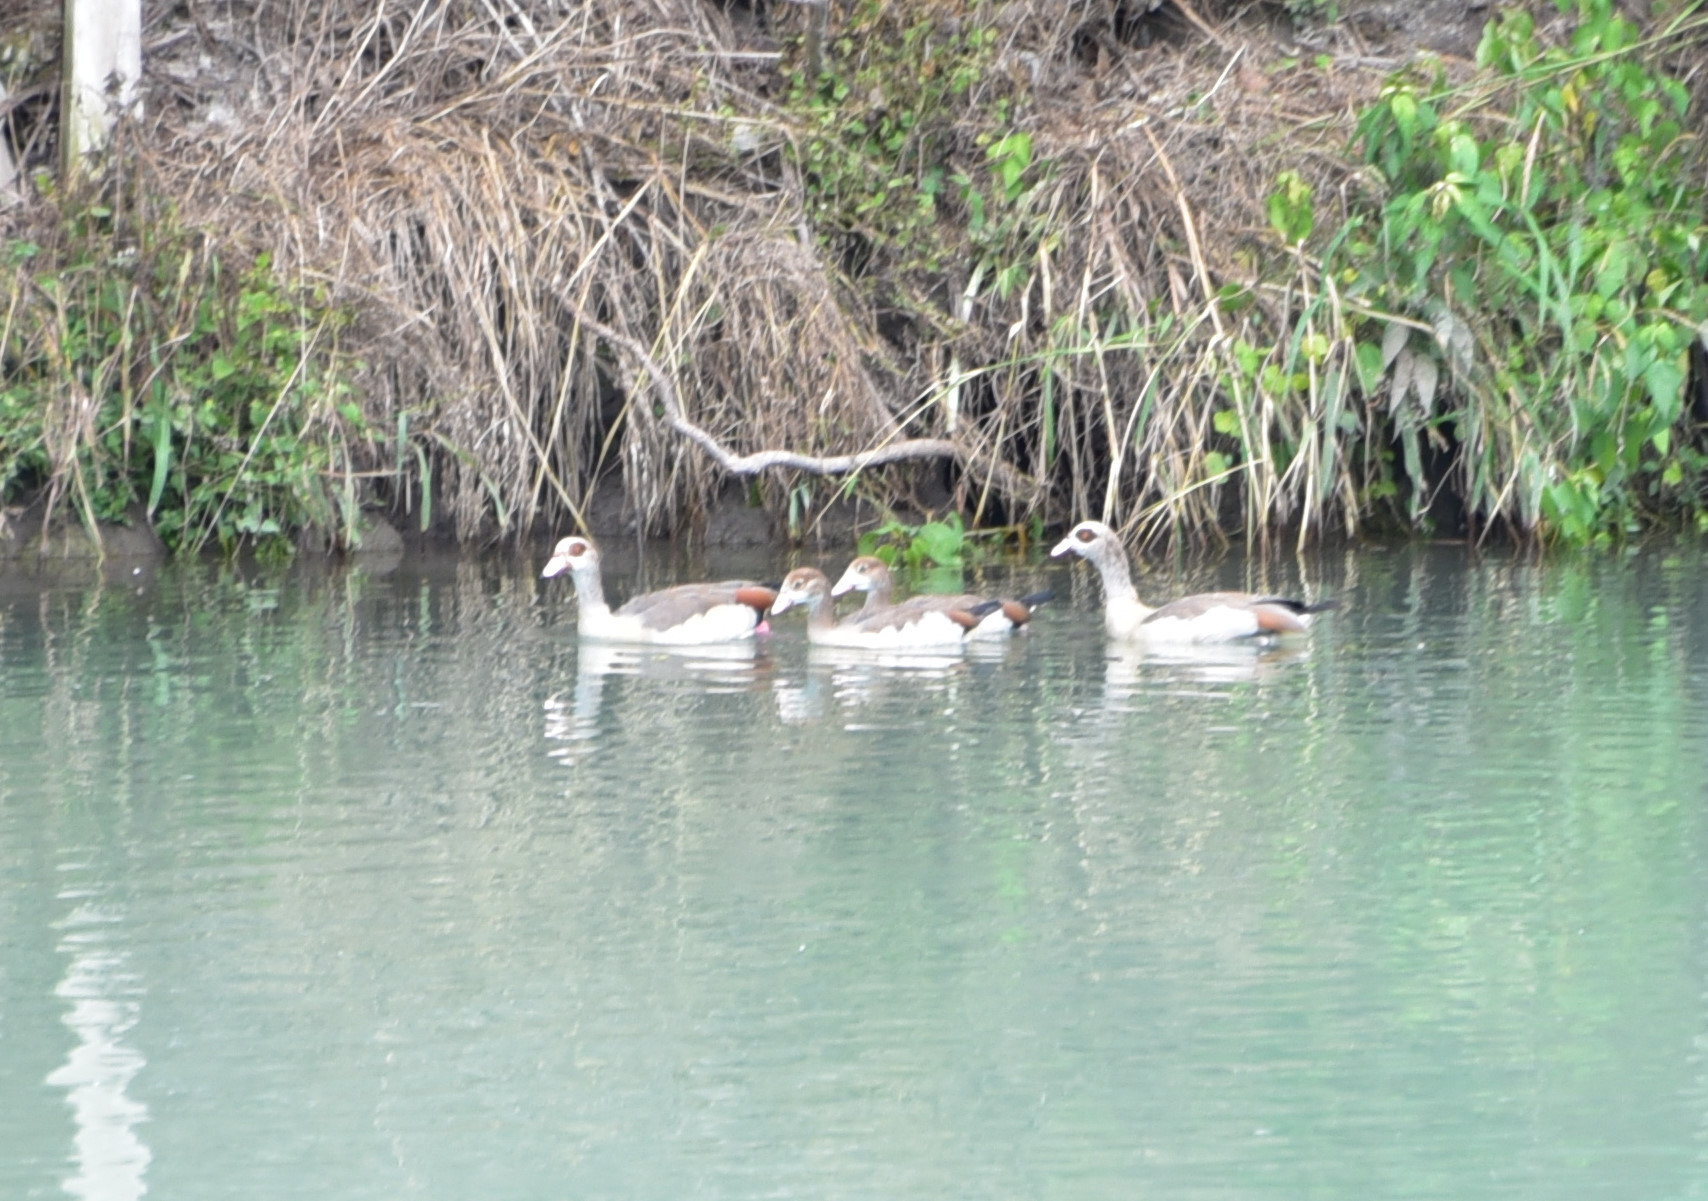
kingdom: Animalia
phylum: Chordata
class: Aves
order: Anseriformes
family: Anatidae
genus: Alopochen
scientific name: Alopochen aegyptiaca
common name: Egyptian goose
